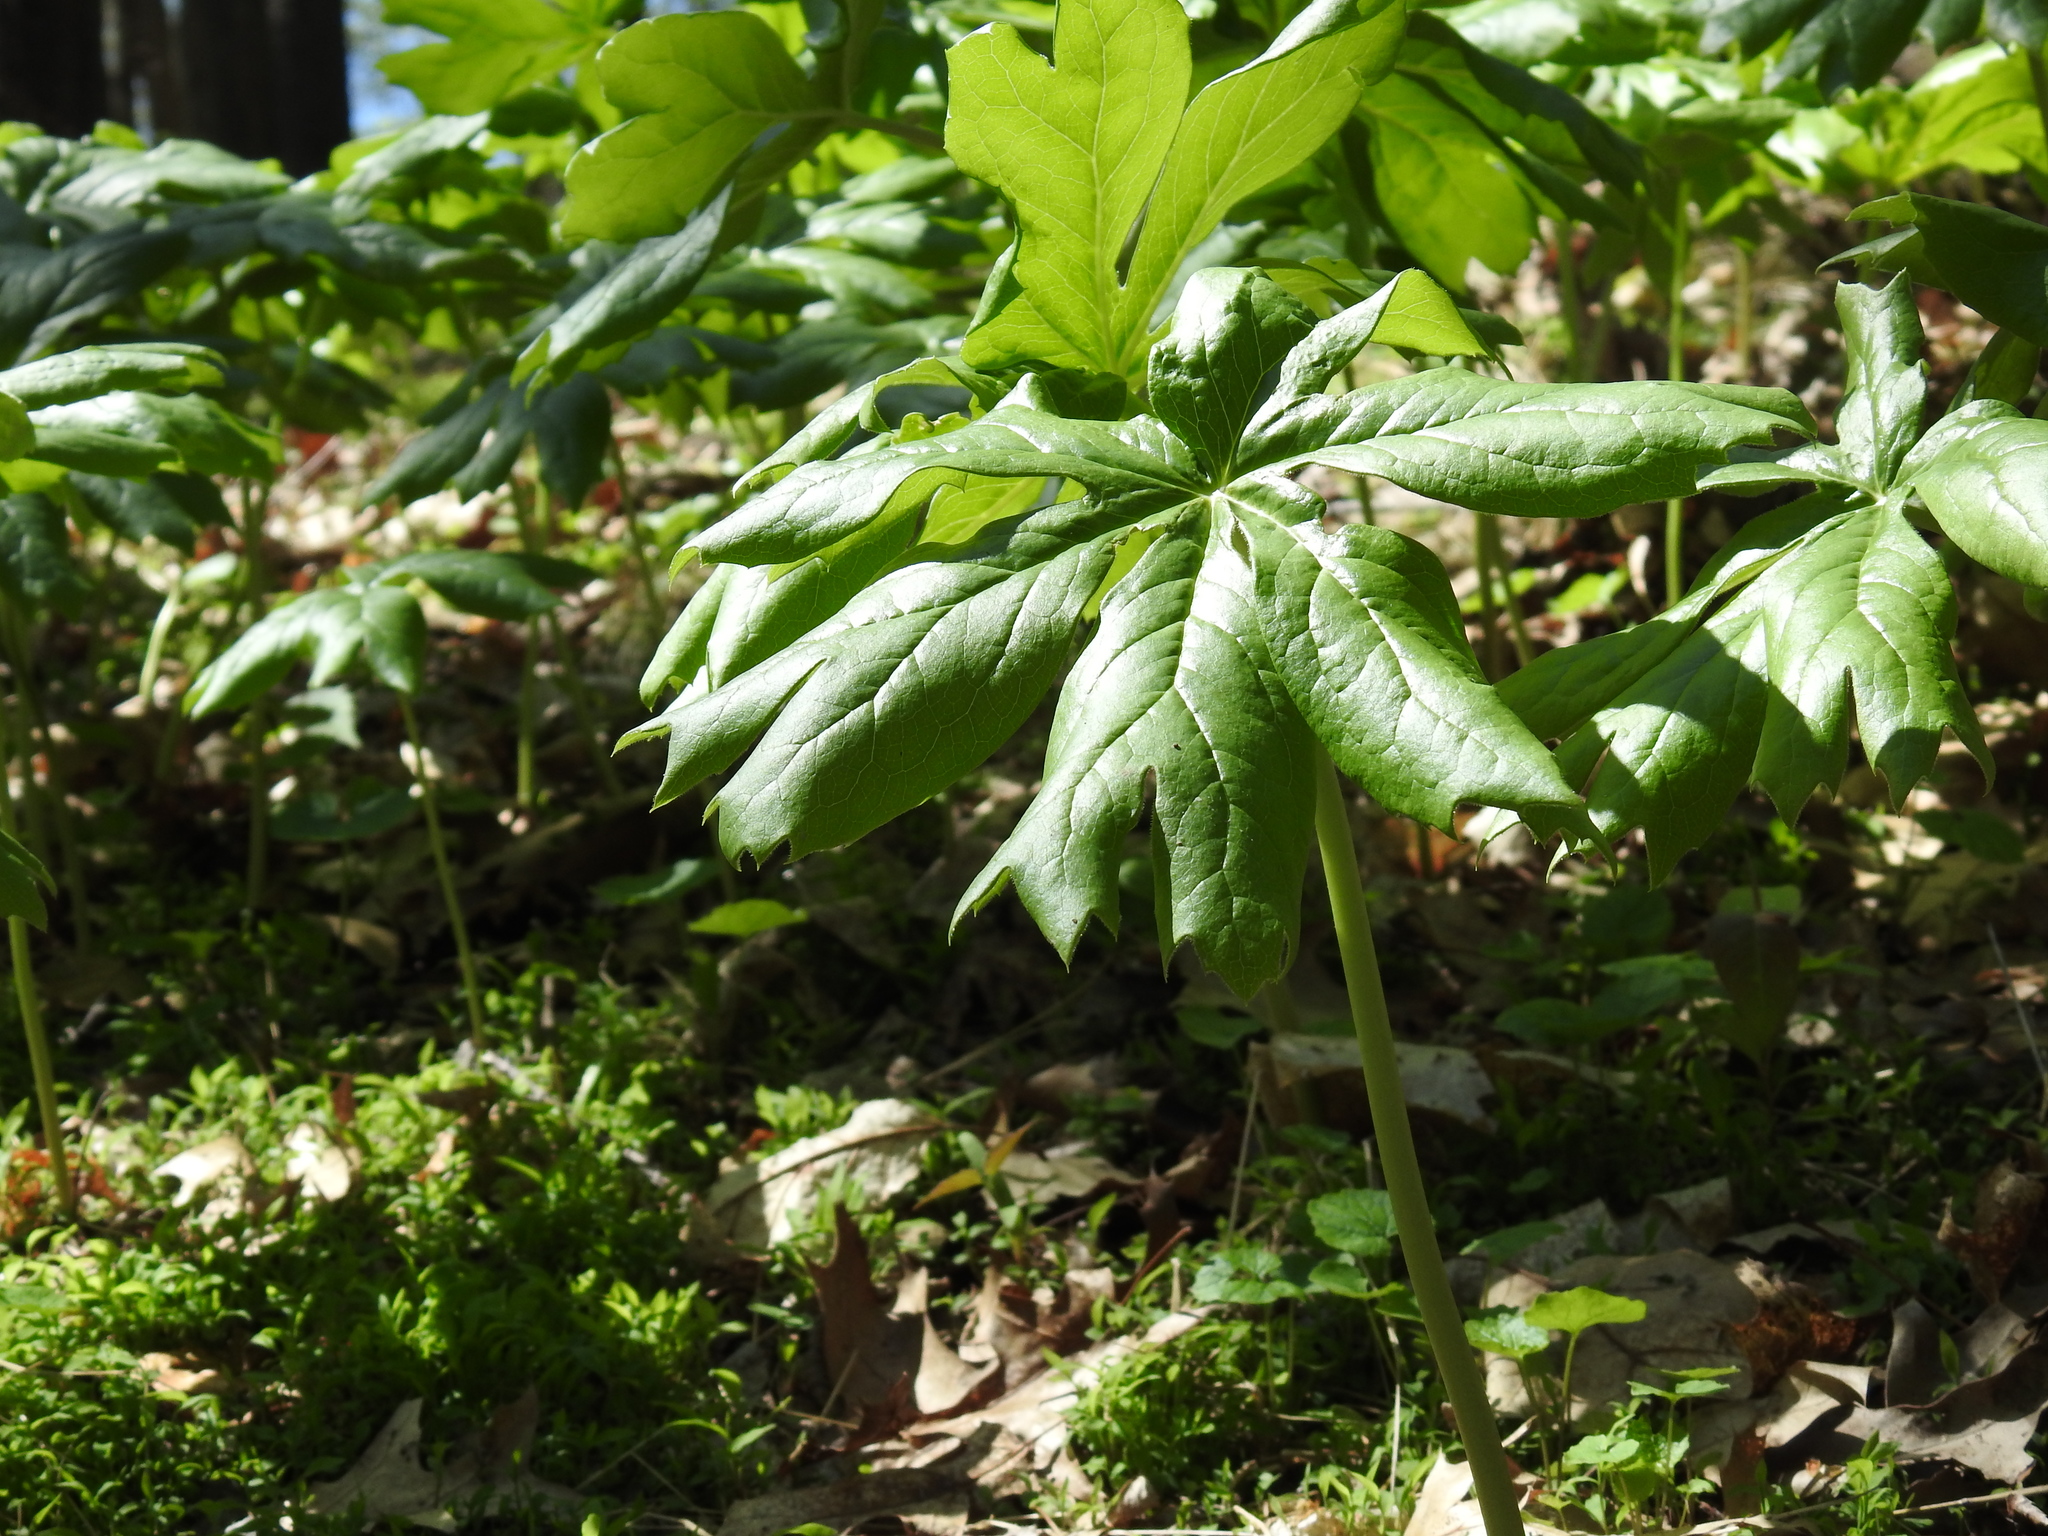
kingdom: Plantae
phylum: Tracheophyta
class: Magnoliopsida
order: Ranunculales
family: Berberidaceae
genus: Podophyllum
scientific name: Podophyllum peltatum
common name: Wild mandrake
